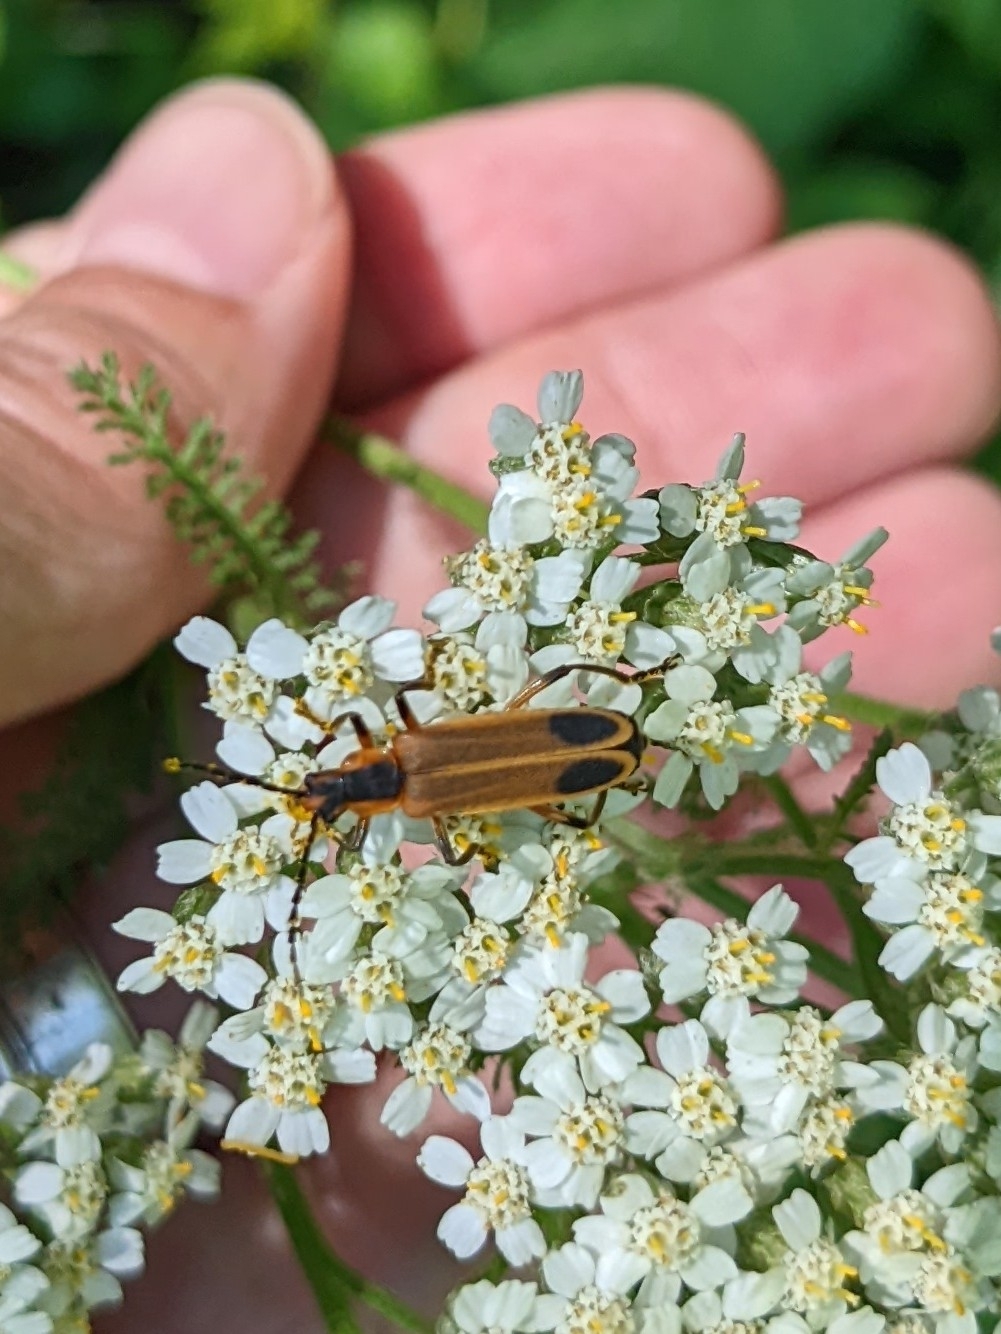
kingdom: Animalia
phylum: Arthropoda
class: Insecta
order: Coleoptera
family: Cantharidae
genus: Chauliognathus
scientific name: Chauliognathus marginatus
